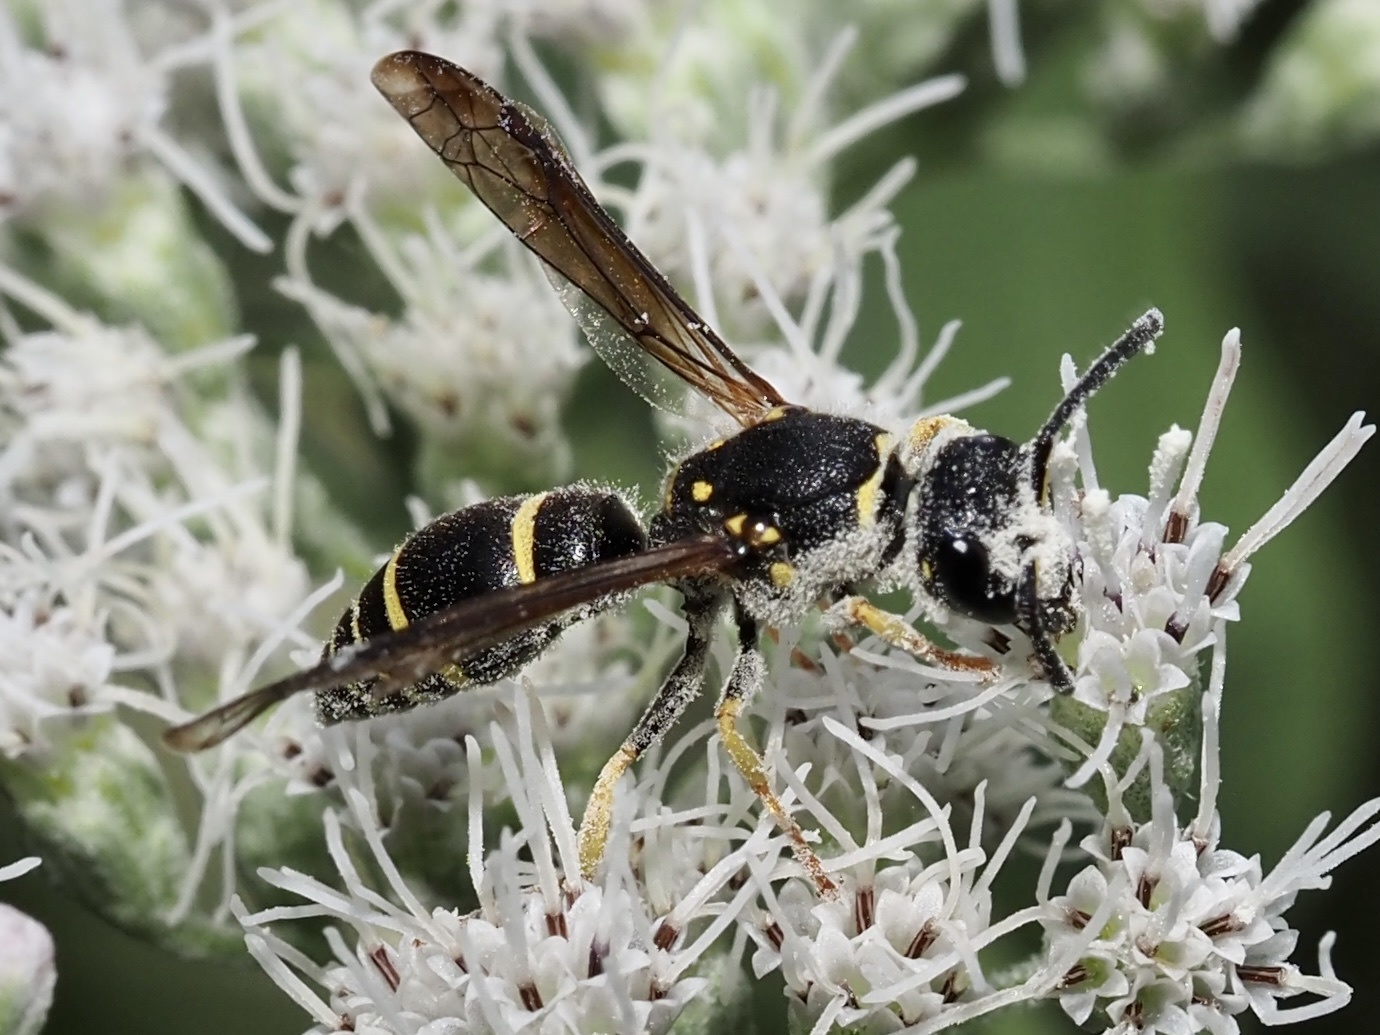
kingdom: Animalia
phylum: Arthropoda
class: Insecta
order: Hymenoptera
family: Vespidae
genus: Ancistrocerus
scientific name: Ancistrocerus adiabatus
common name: Bramble mason wasp
